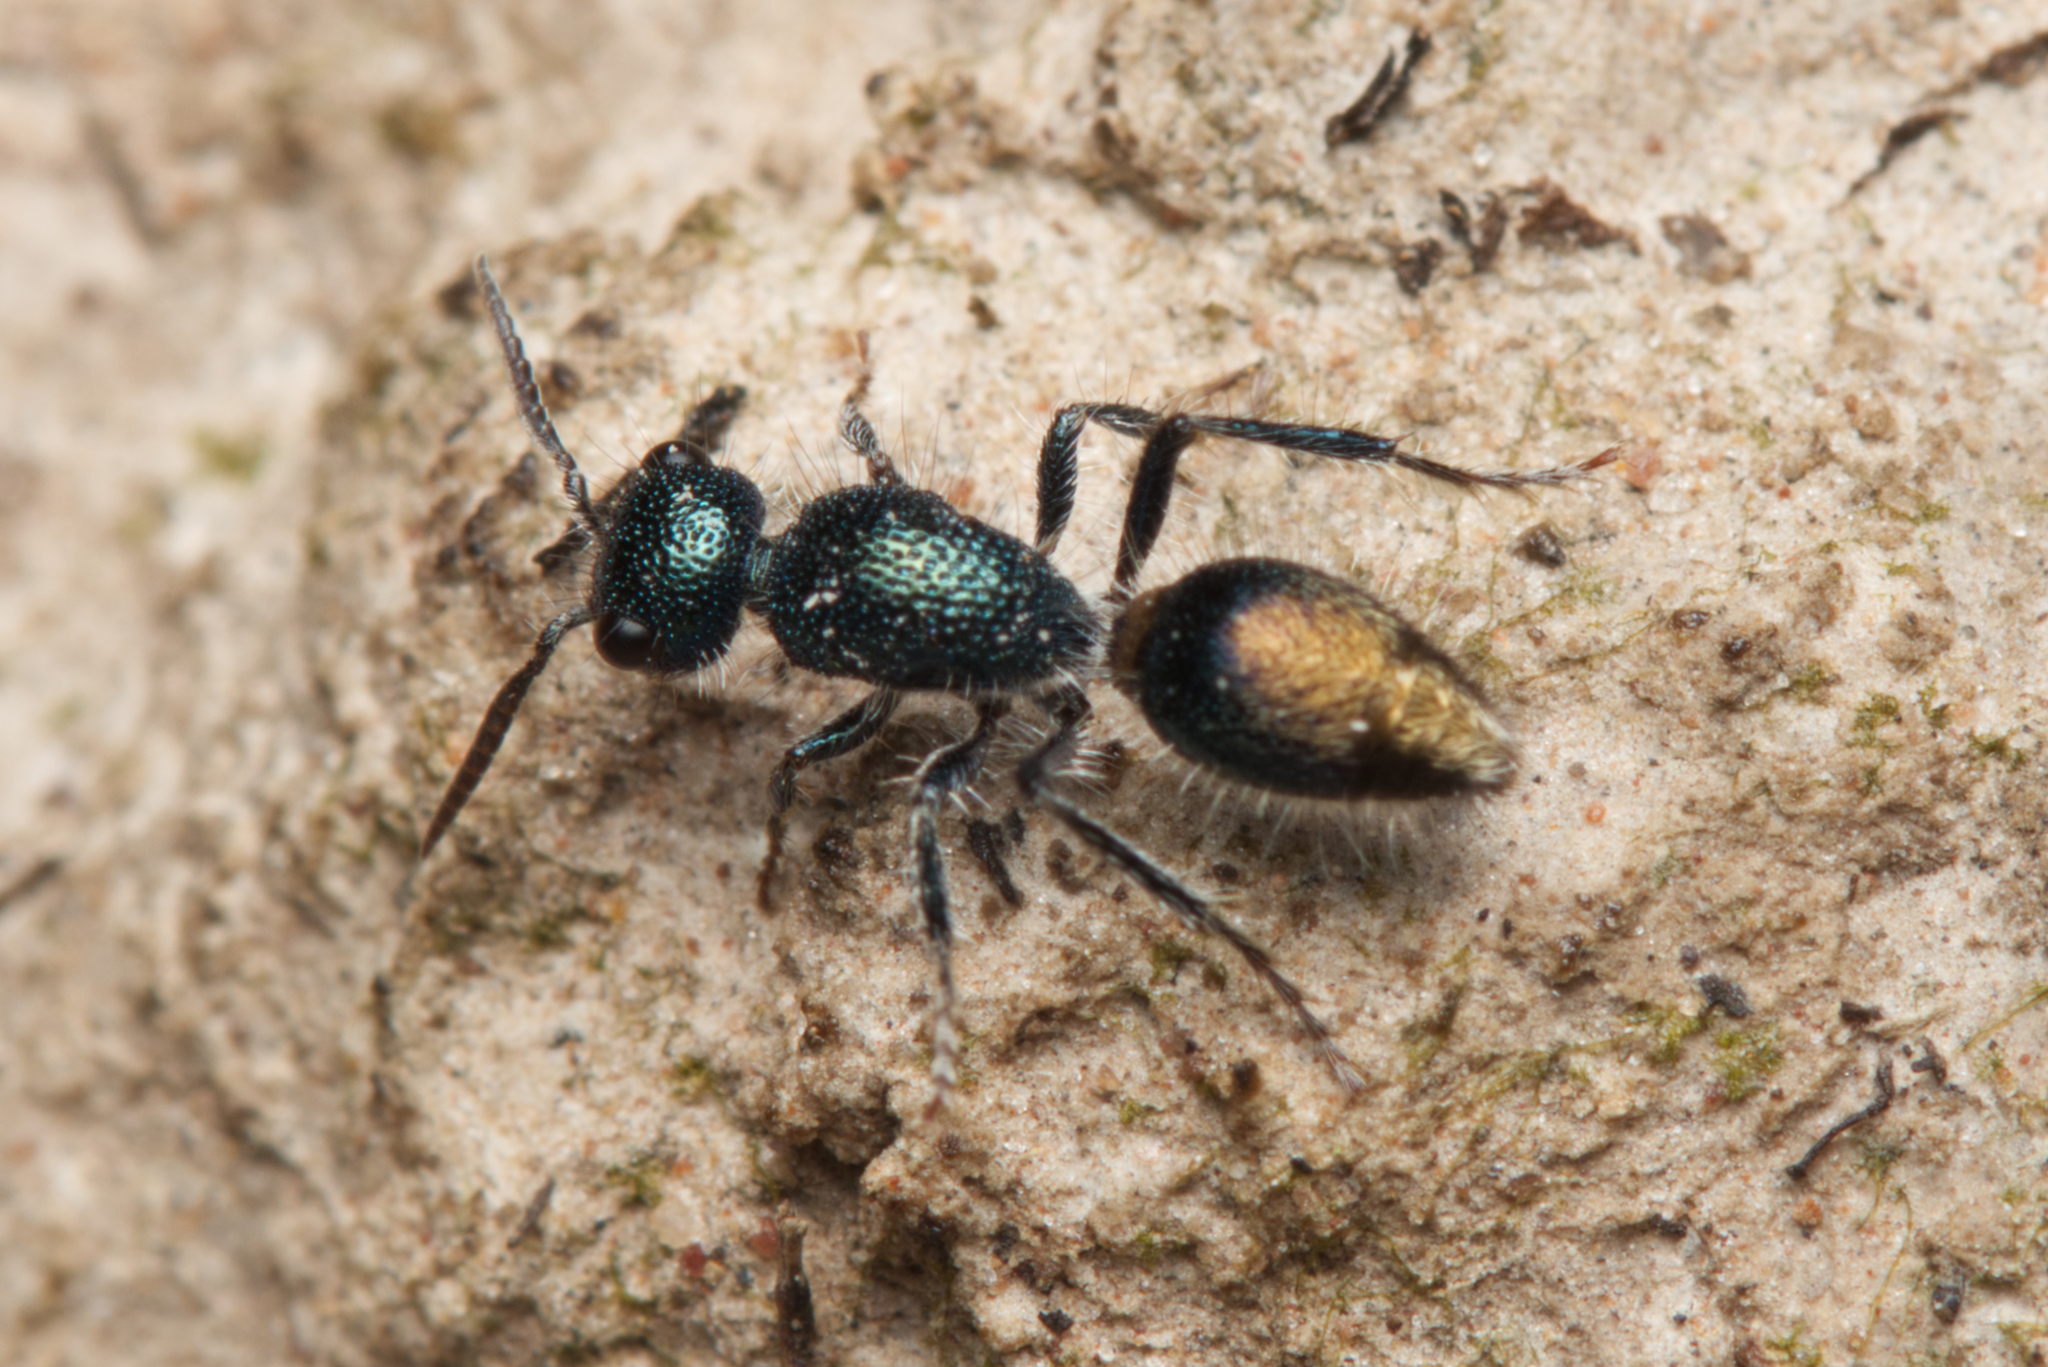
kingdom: Animalia
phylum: Arthropoda
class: Insecta
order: Hymenoptera
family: Mutillidae
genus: Ephutomorpha
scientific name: Ephutomorpha
